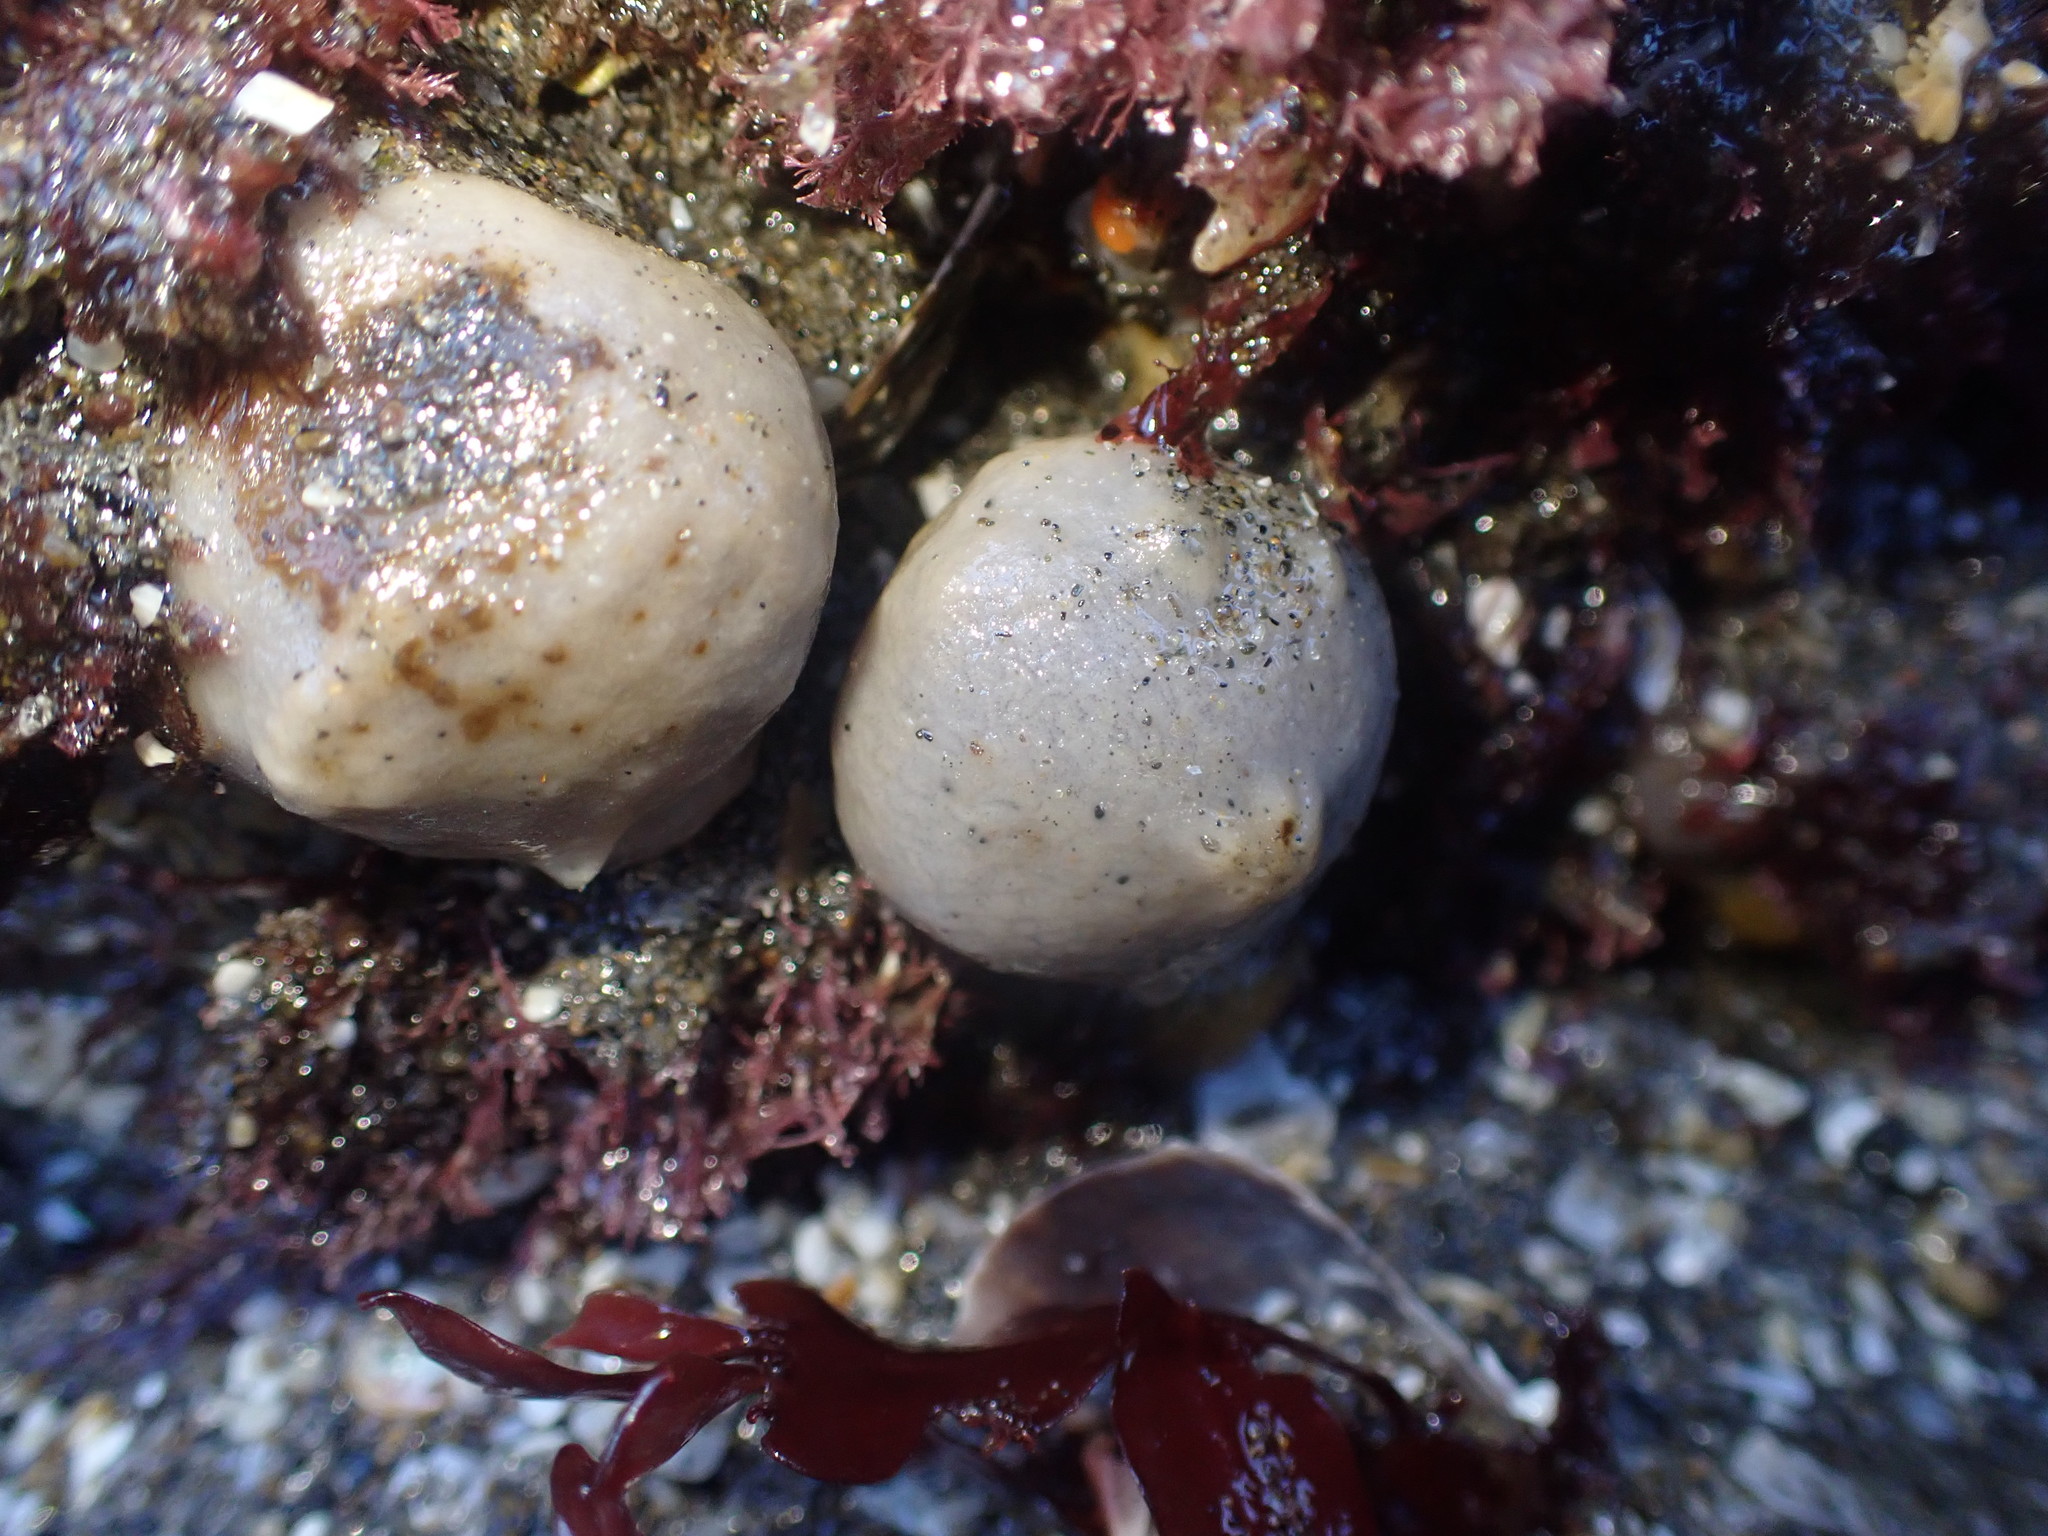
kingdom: Animalia
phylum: Porifera
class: Demospongiae
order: Suberitida
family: Suberitidae
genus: Suberites
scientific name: Suberites perfectus
